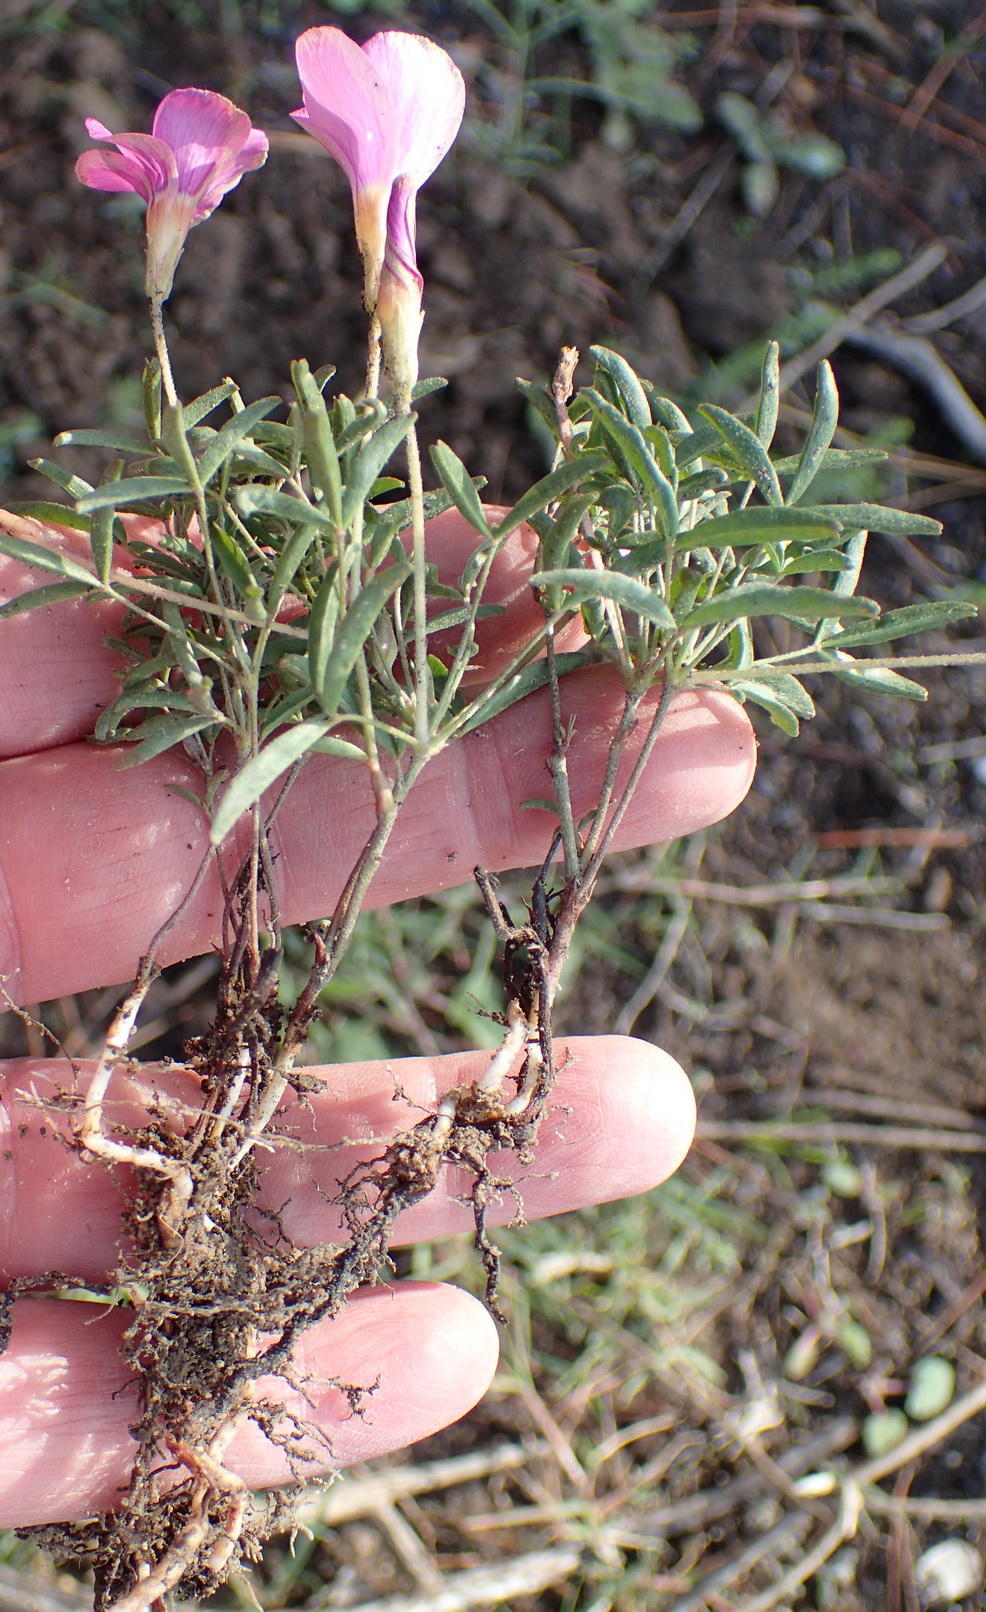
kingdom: Plantae
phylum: Tracheophyta
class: Magnoliopsida
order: Oxalidales
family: Oxalidaceae
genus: Oxalis
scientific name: Oxalis ciliaris
